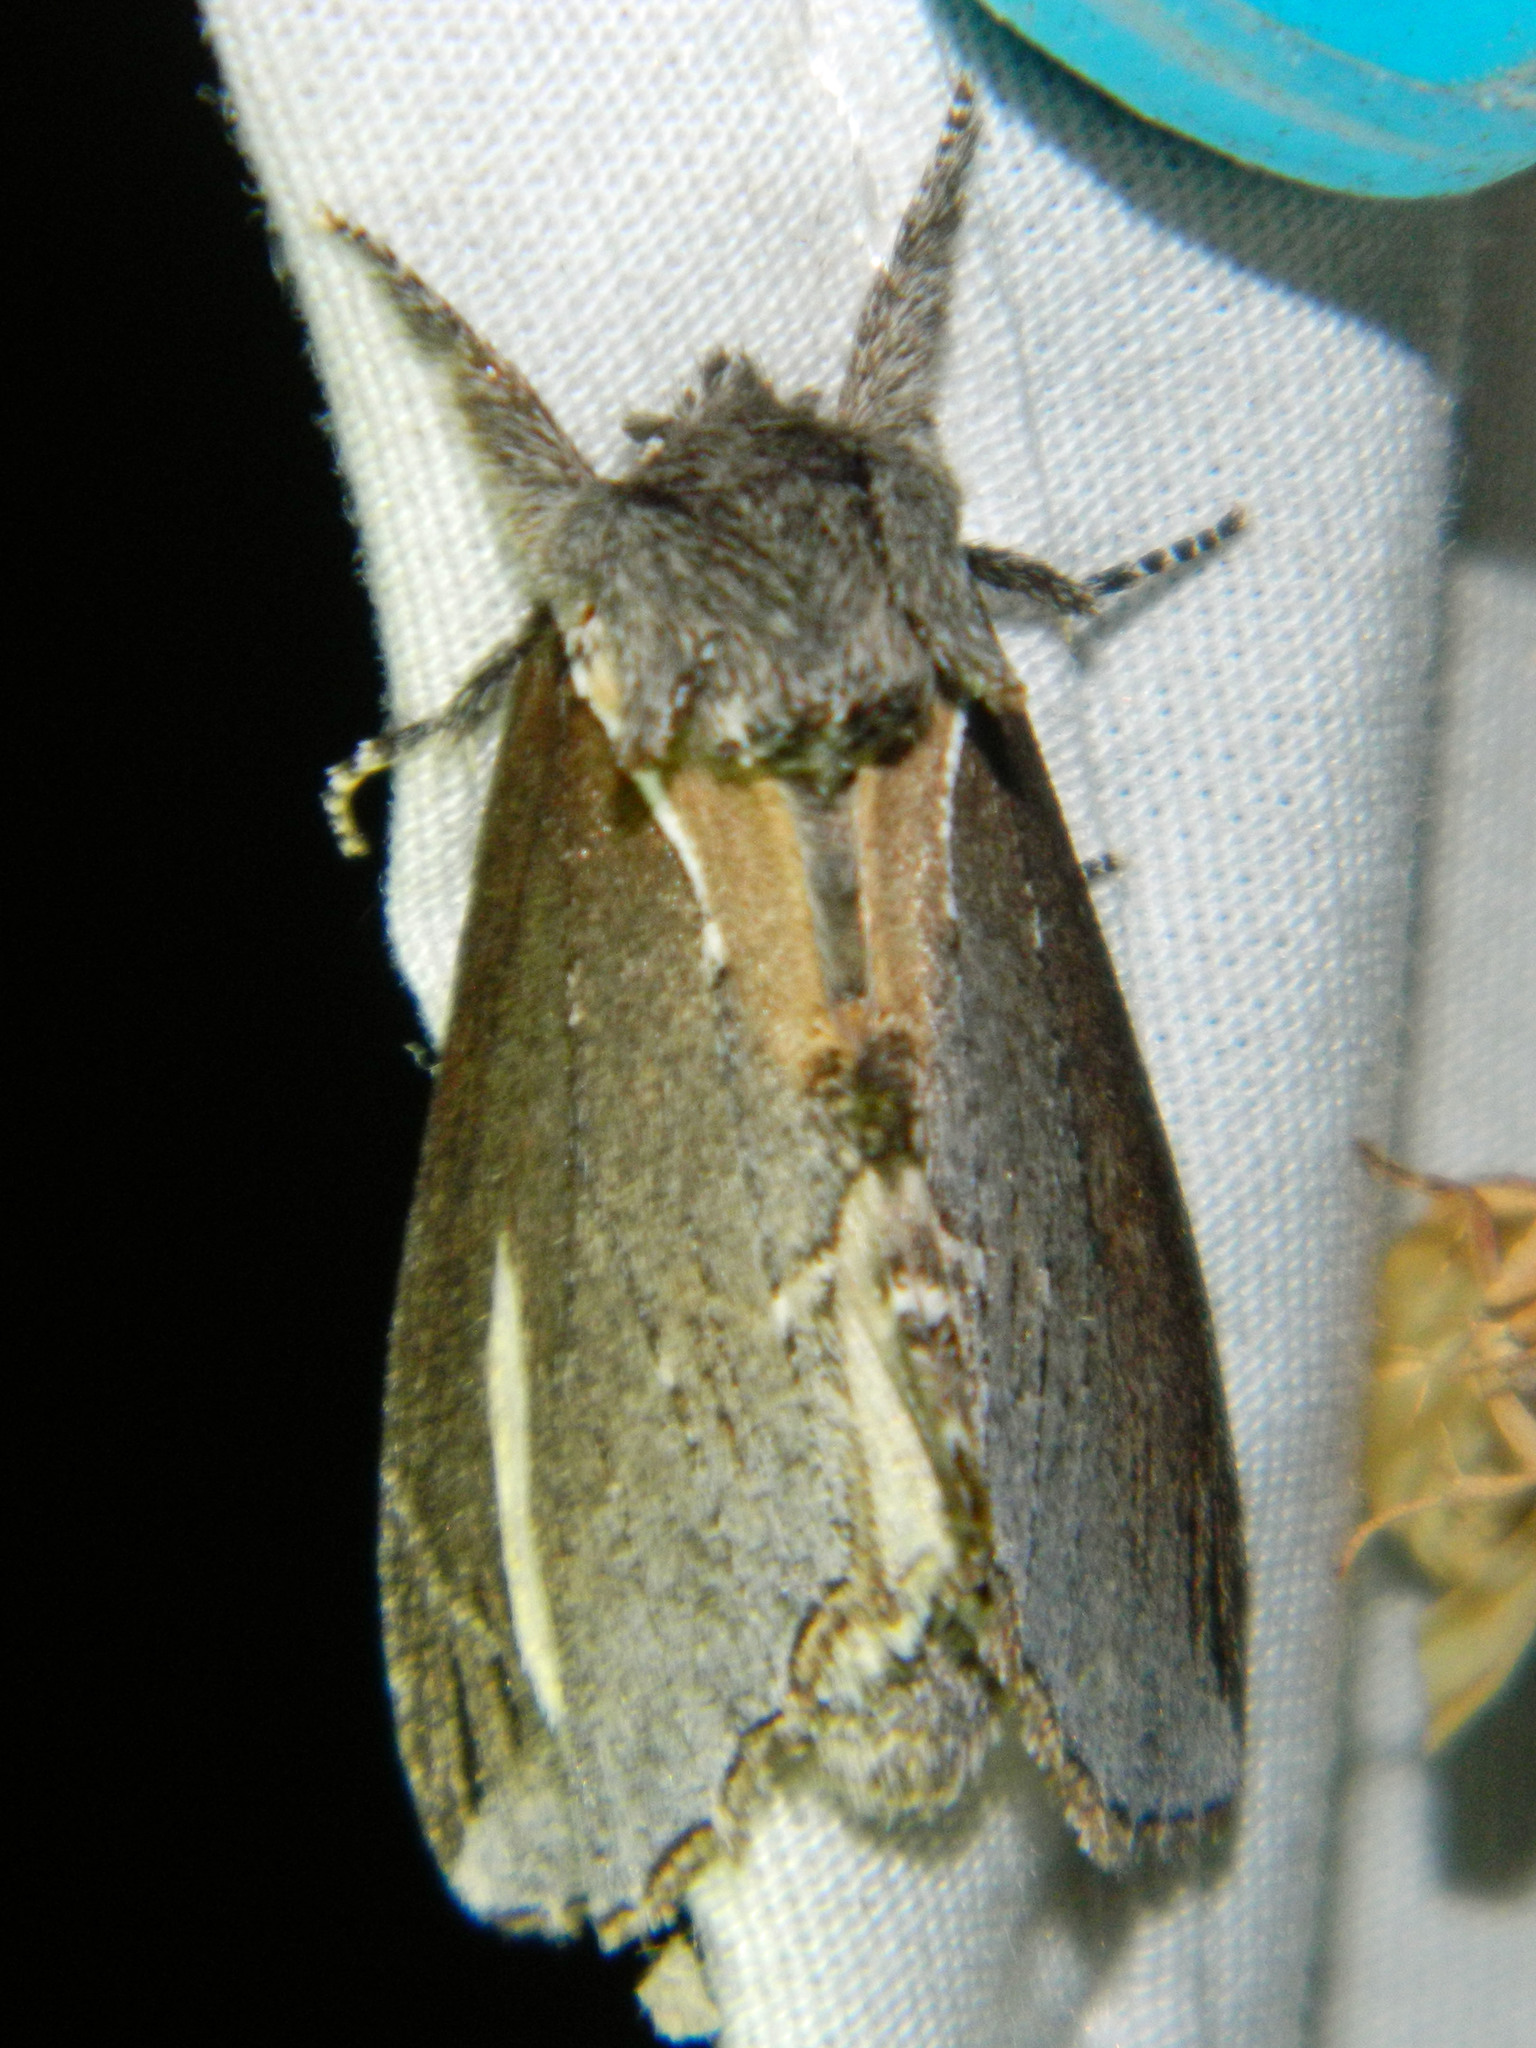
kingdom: Animalia
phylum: Arthropoda
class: Insecta
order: Lepidoptera
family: Notodontidae
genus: Pheosidea
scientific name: Pheosidea elegans
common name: Elegant prominent
